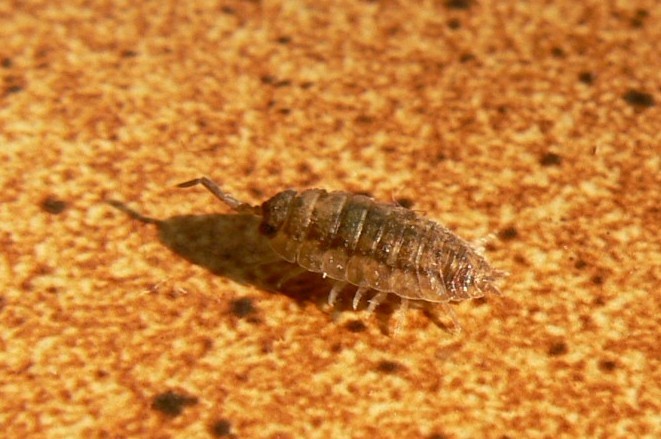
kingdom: Animalia
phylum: Arthropoda
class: Malacostraca
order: Isopoda
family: Porcellionidae
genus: Porcellio
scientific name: Porcellio scaber
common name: Common rough woodlouse
